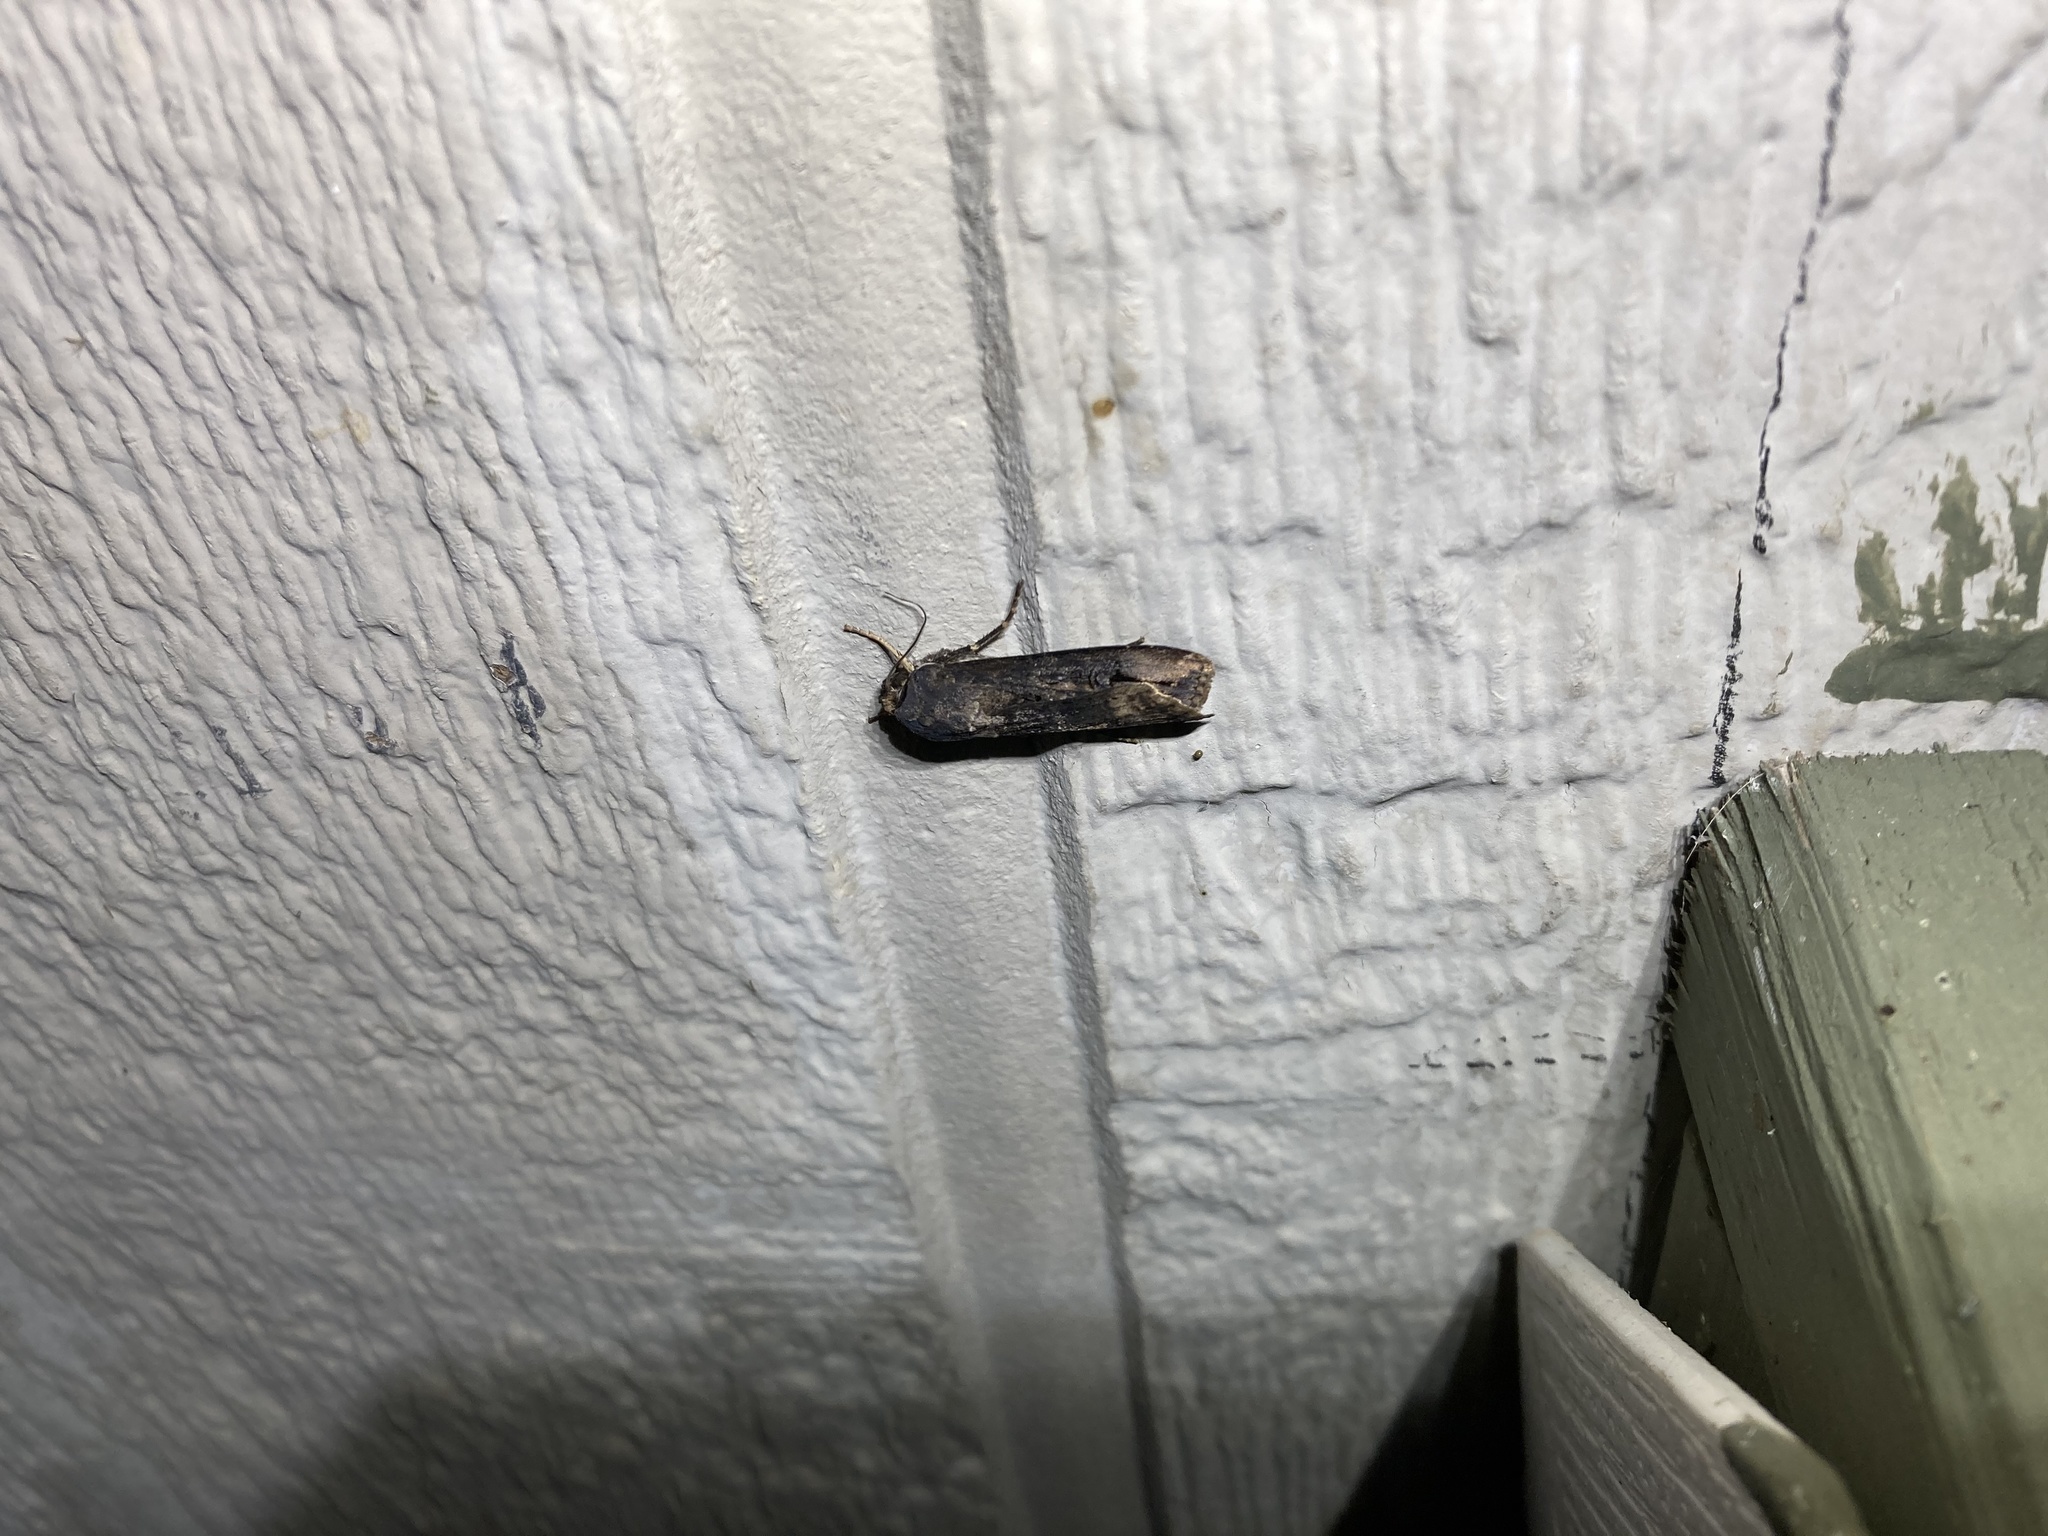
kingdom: Animalia
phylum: Arthropoda
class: Insecta
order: Lepidoptera
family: Noctuidae
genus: Agrotis
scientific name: Agrotis ipsilon
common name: Dark sword-grass
